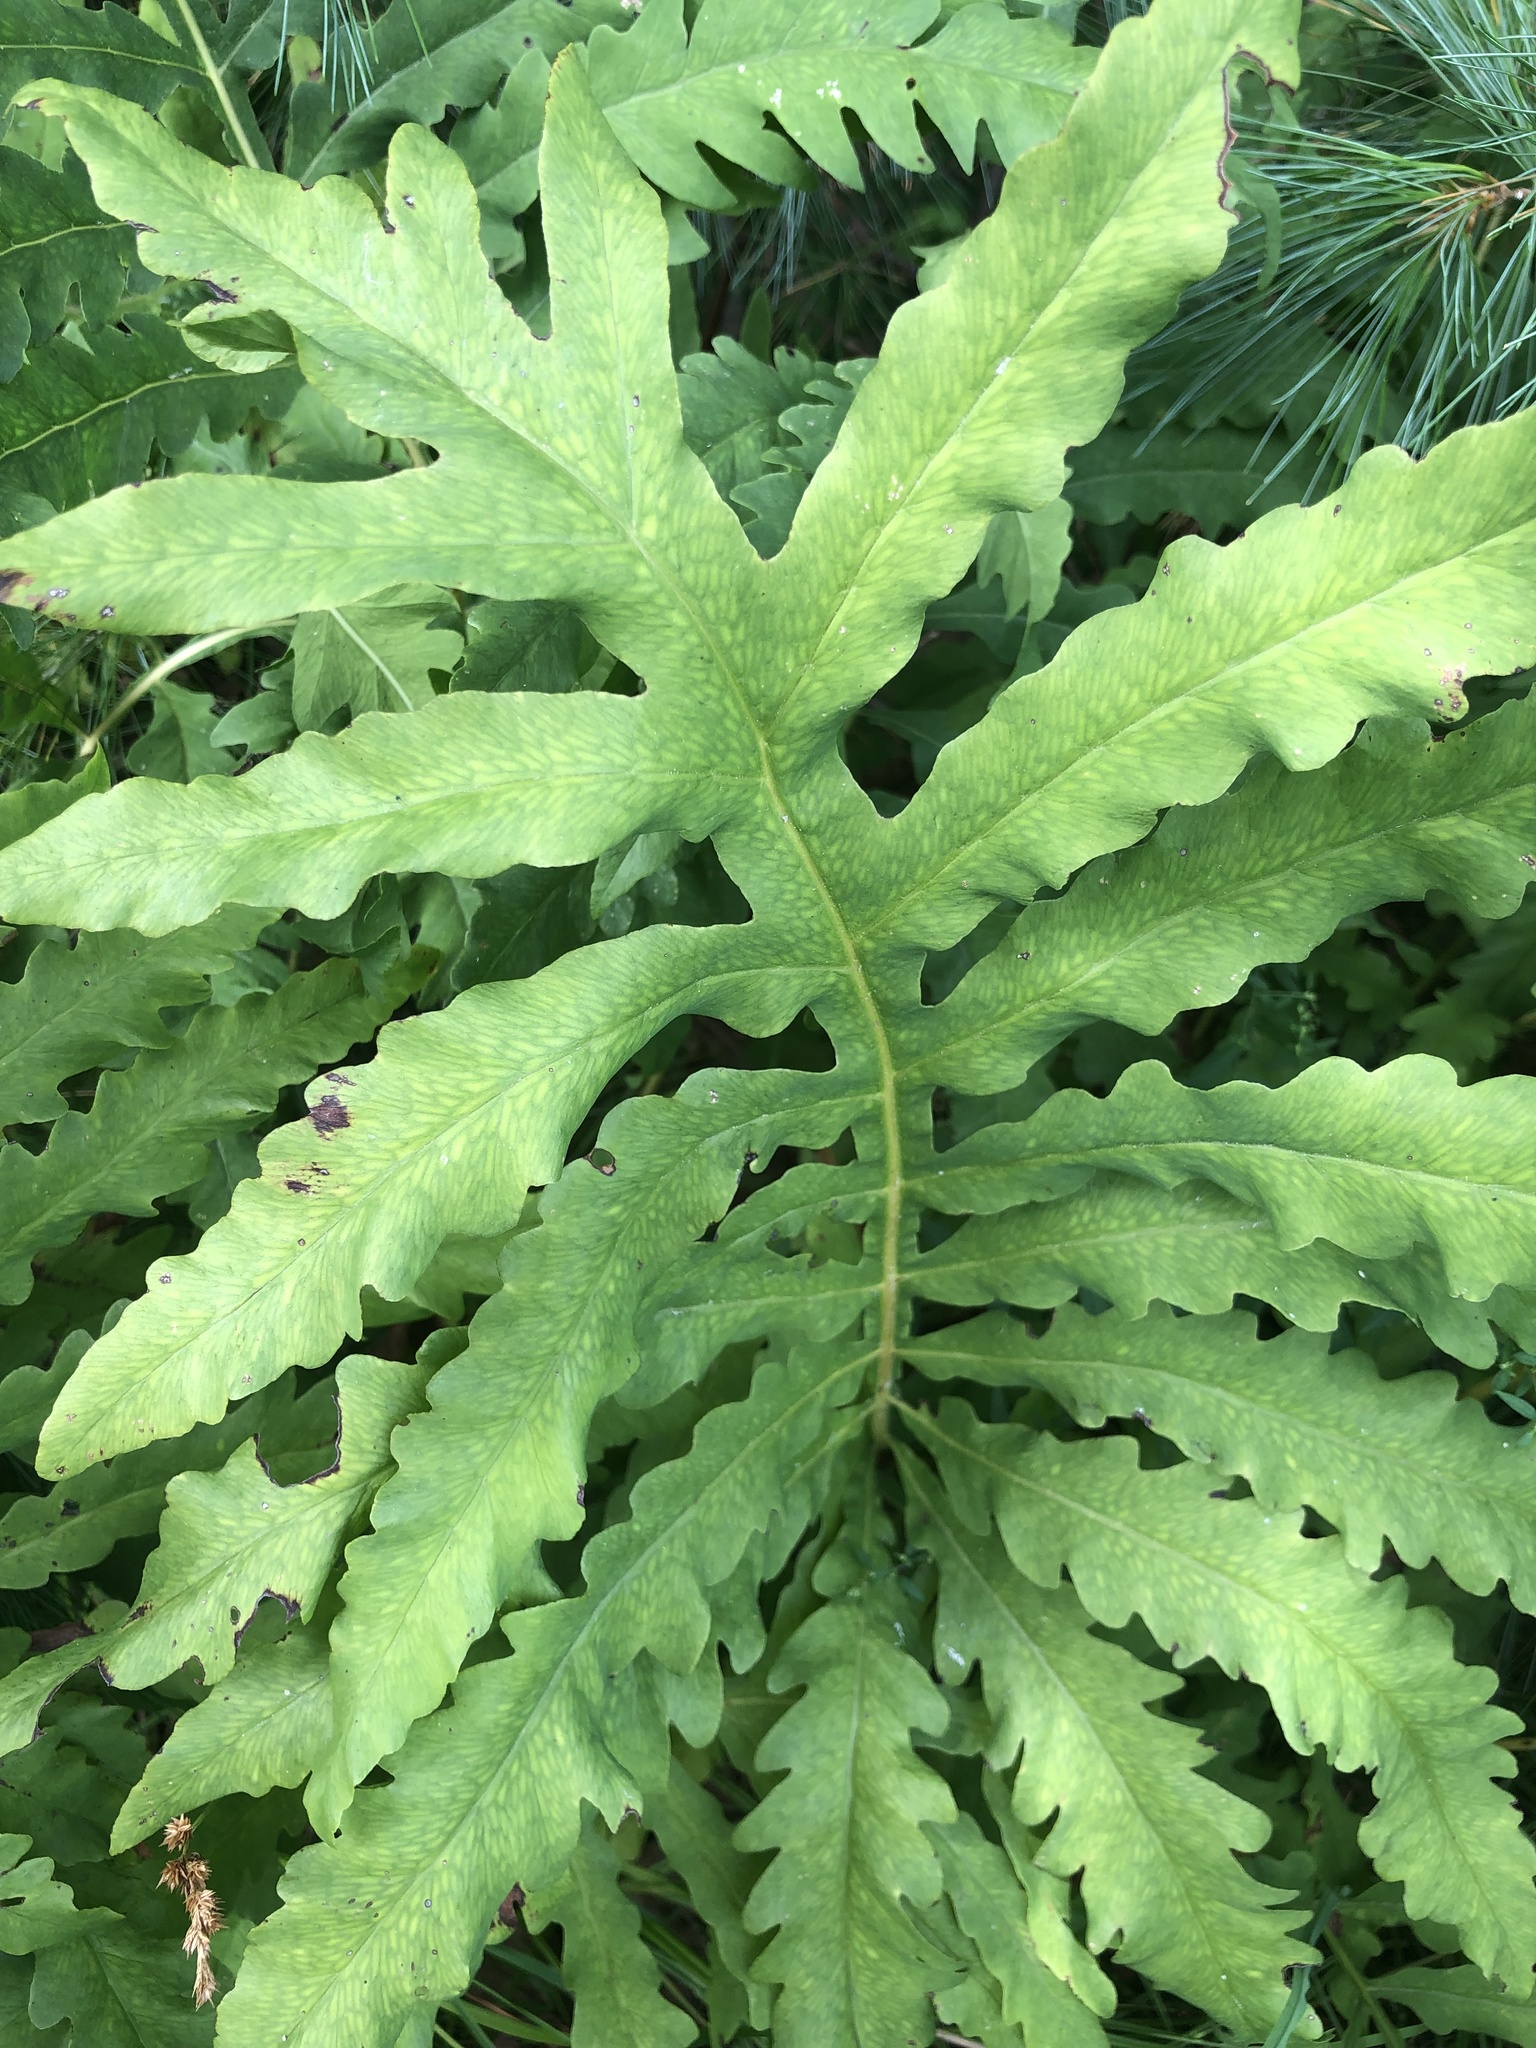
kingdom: Plantae
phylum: Tracheophyta
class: Polypodiopsida
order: Polypodiales
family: Onocleaceae
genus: Onoclea
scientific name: Onoclea sensibilis
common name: Sensitive fern
